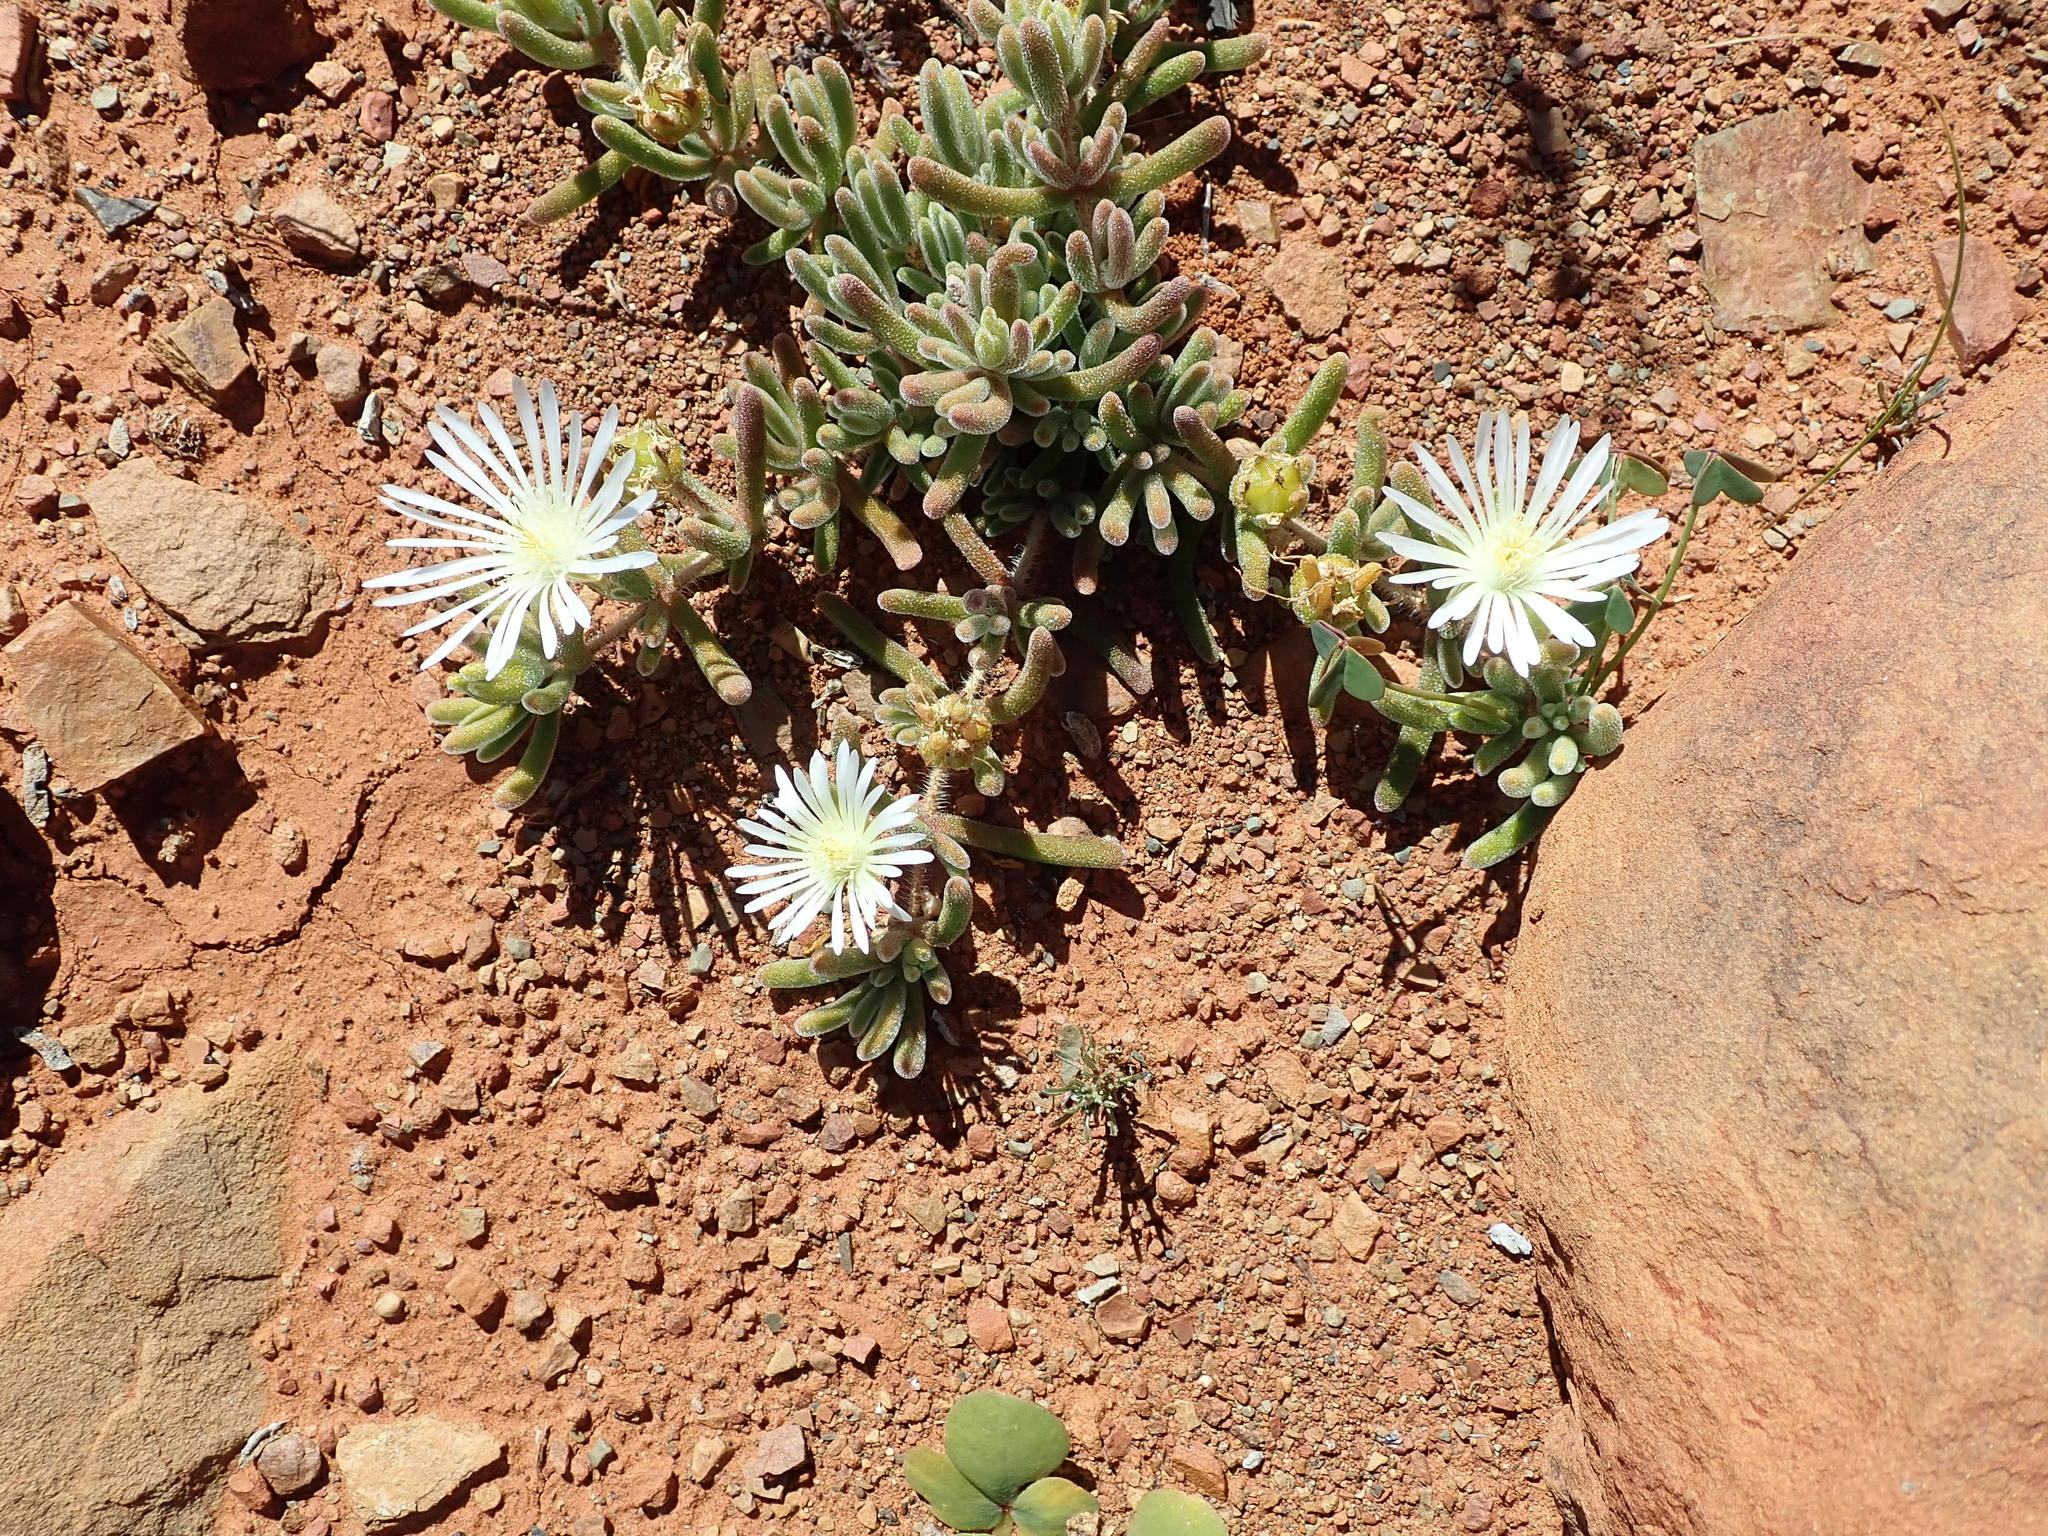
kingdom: Plantae
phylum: Tracheophyta
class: Magnoliopsida
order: Caryophyllales
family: Aizoaceae
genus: Drosanthemum
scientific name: Drosanthemum framesii
